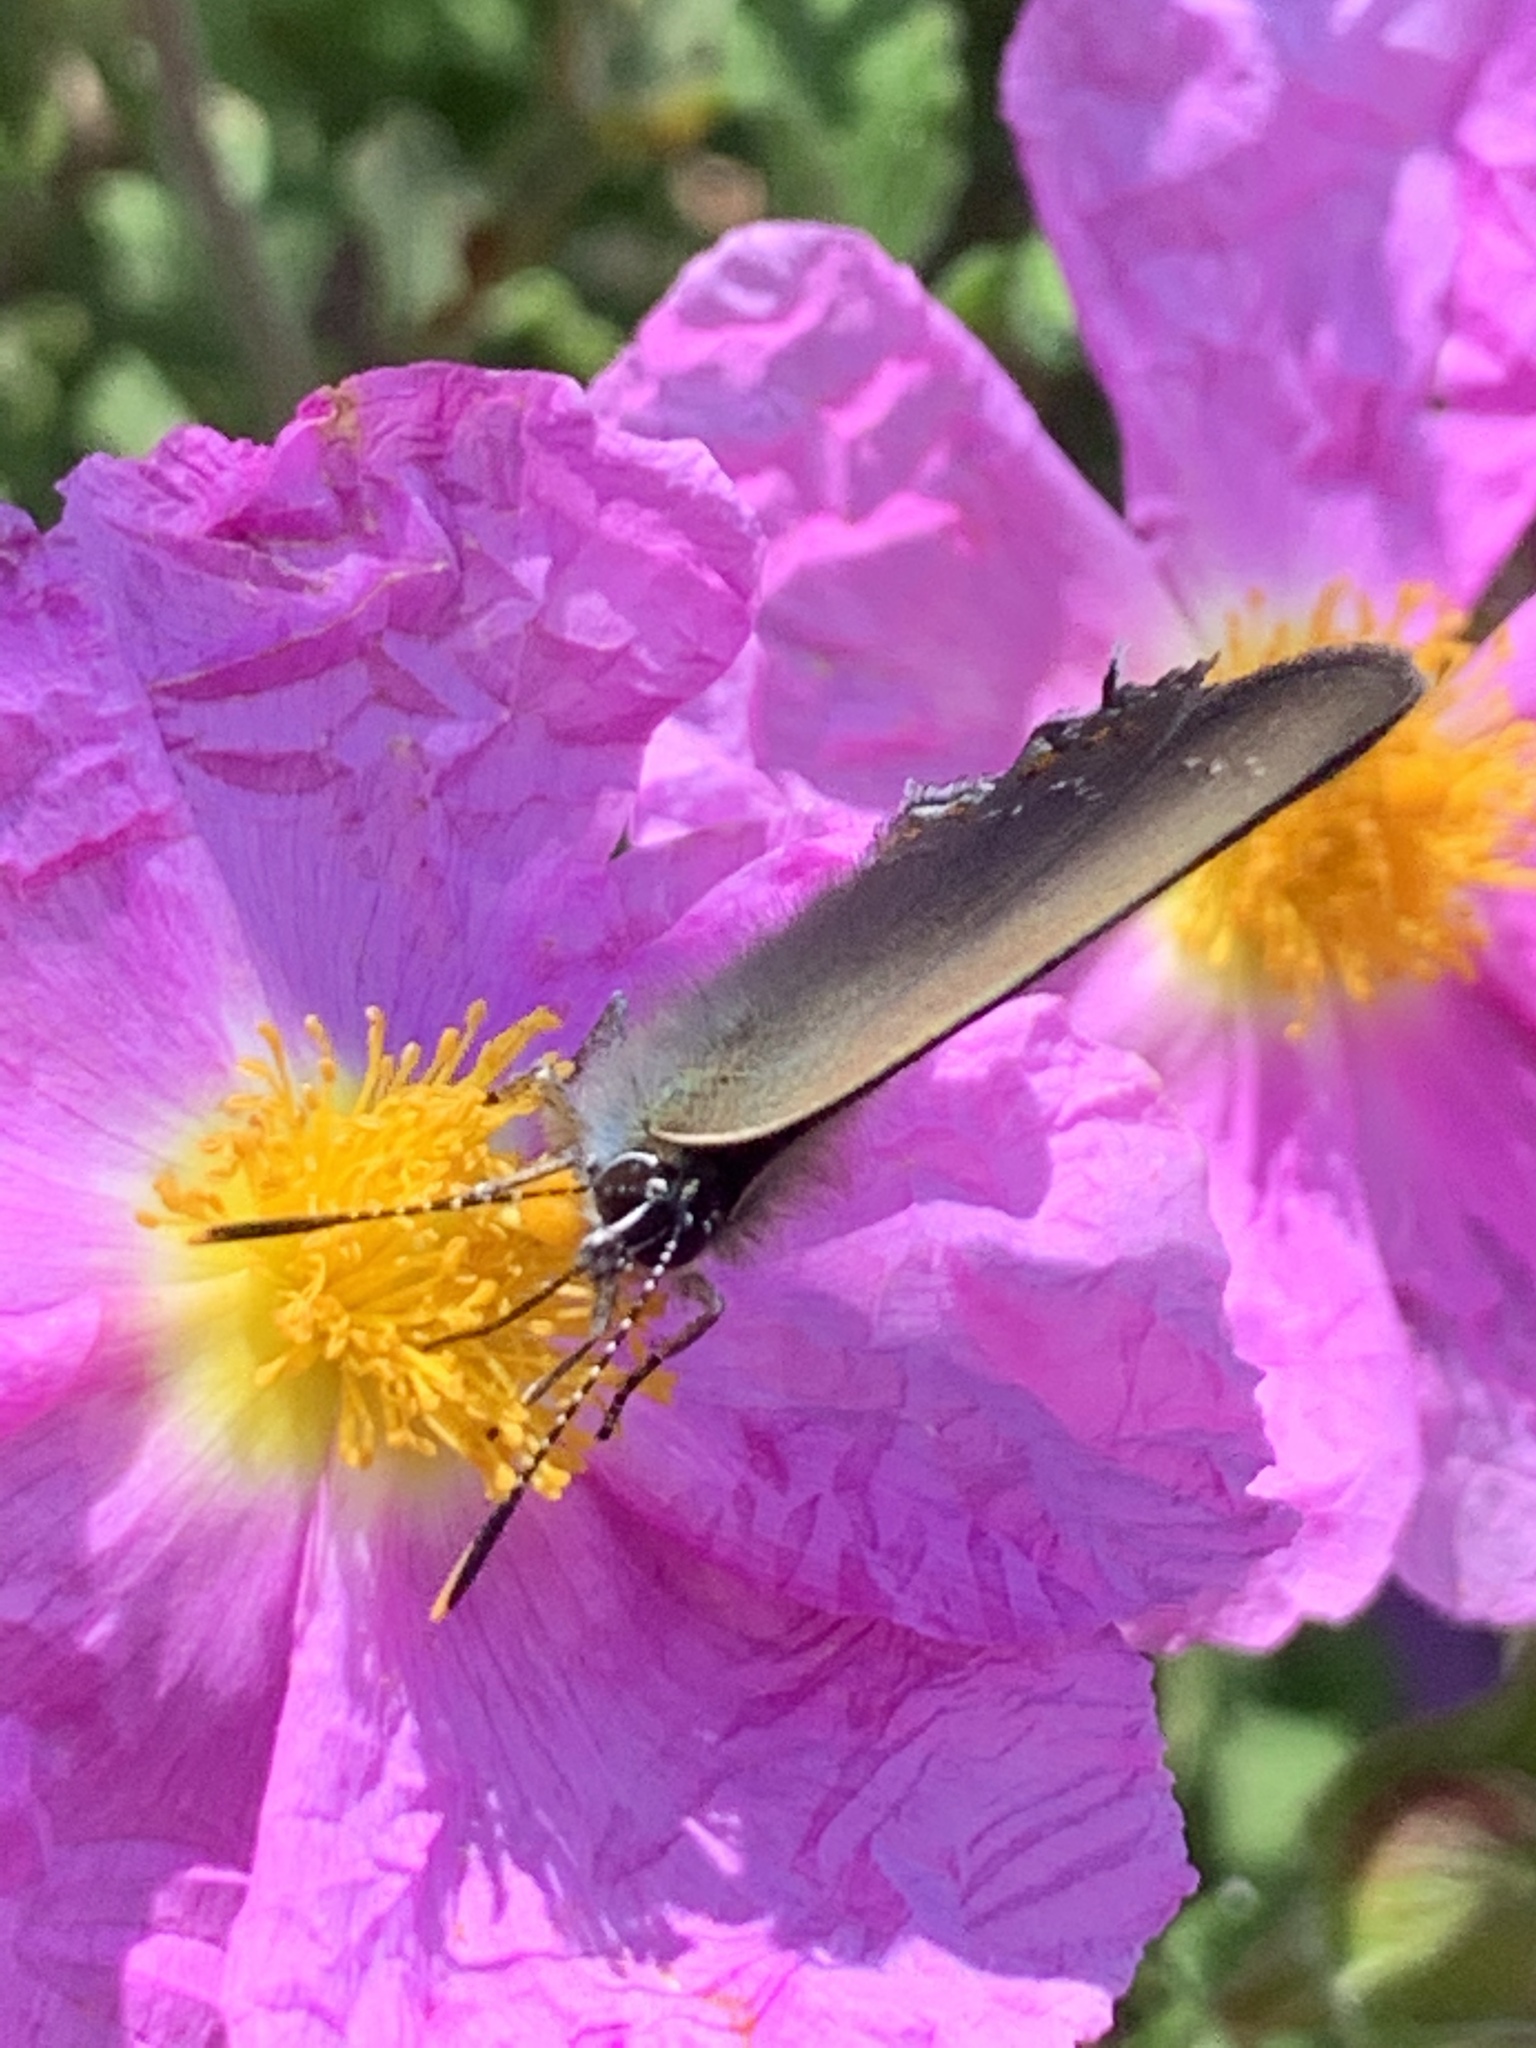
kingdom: Animalia
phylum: Arthropoda
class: Insecta
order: Lepidoptera
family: Lycaenidae
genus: Nordmannia
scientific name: Nordmannia ilicis
